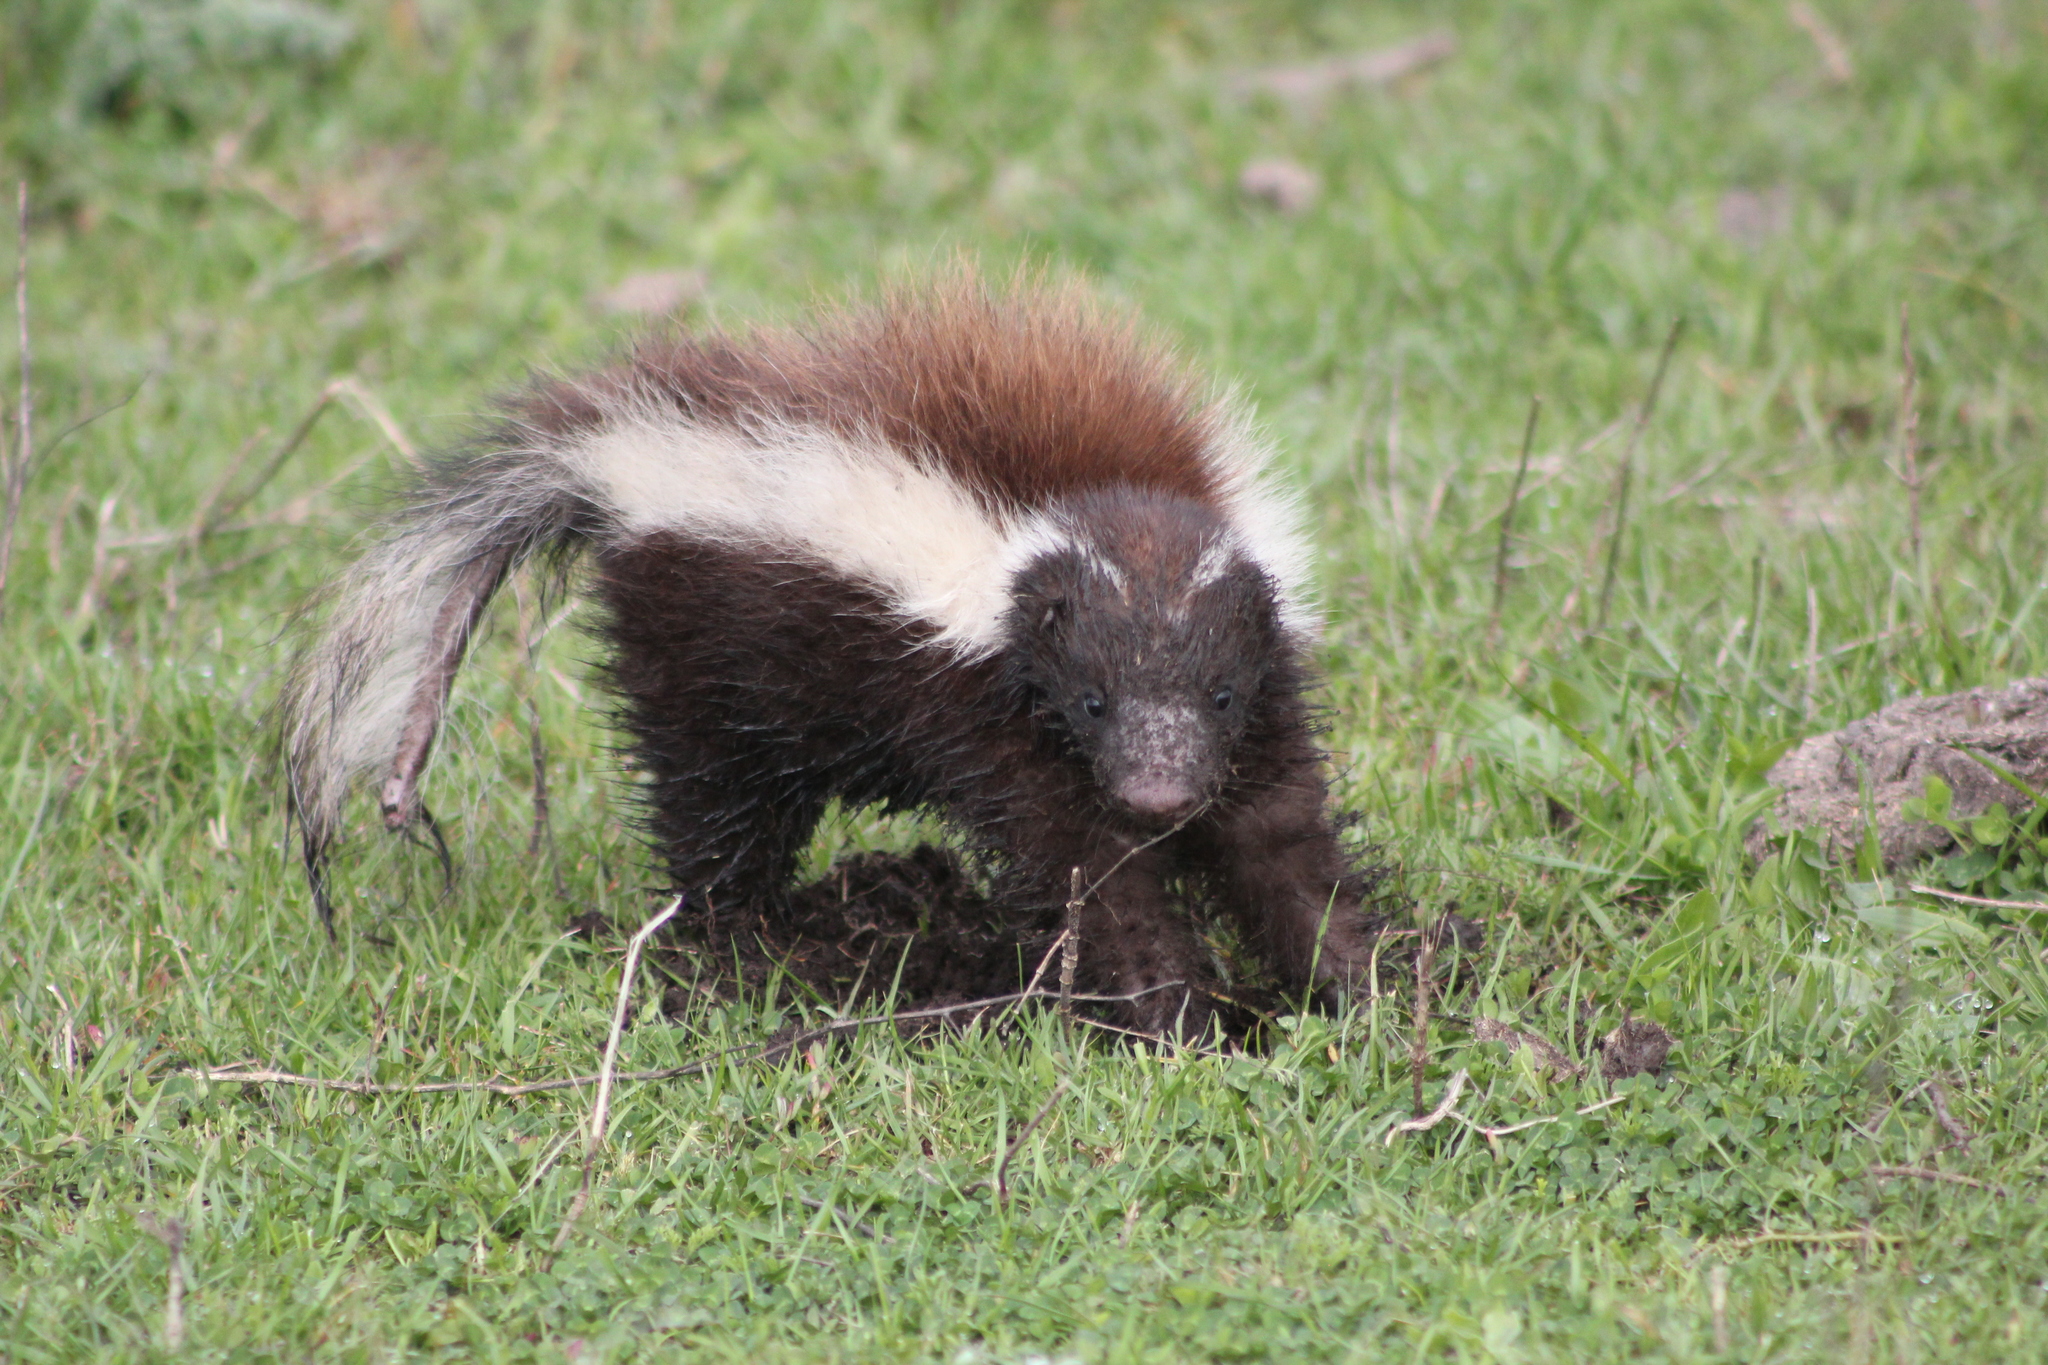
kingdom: Animalia
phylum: Chordata
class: Mammalia
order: Carnivora
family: Mephitidae
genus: Conepatus
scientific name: Conepatus chinga
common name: Molina's hog-nosed skunk
